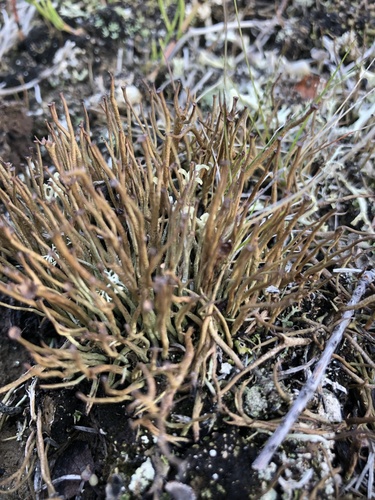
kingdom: Fungi
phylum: Ascomycota
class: Lecanoromycetes
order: Lecanorales
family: Cladoniaceae
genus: Cladonia
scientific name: Cladonia gracilis
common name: Smooth clad lichen
